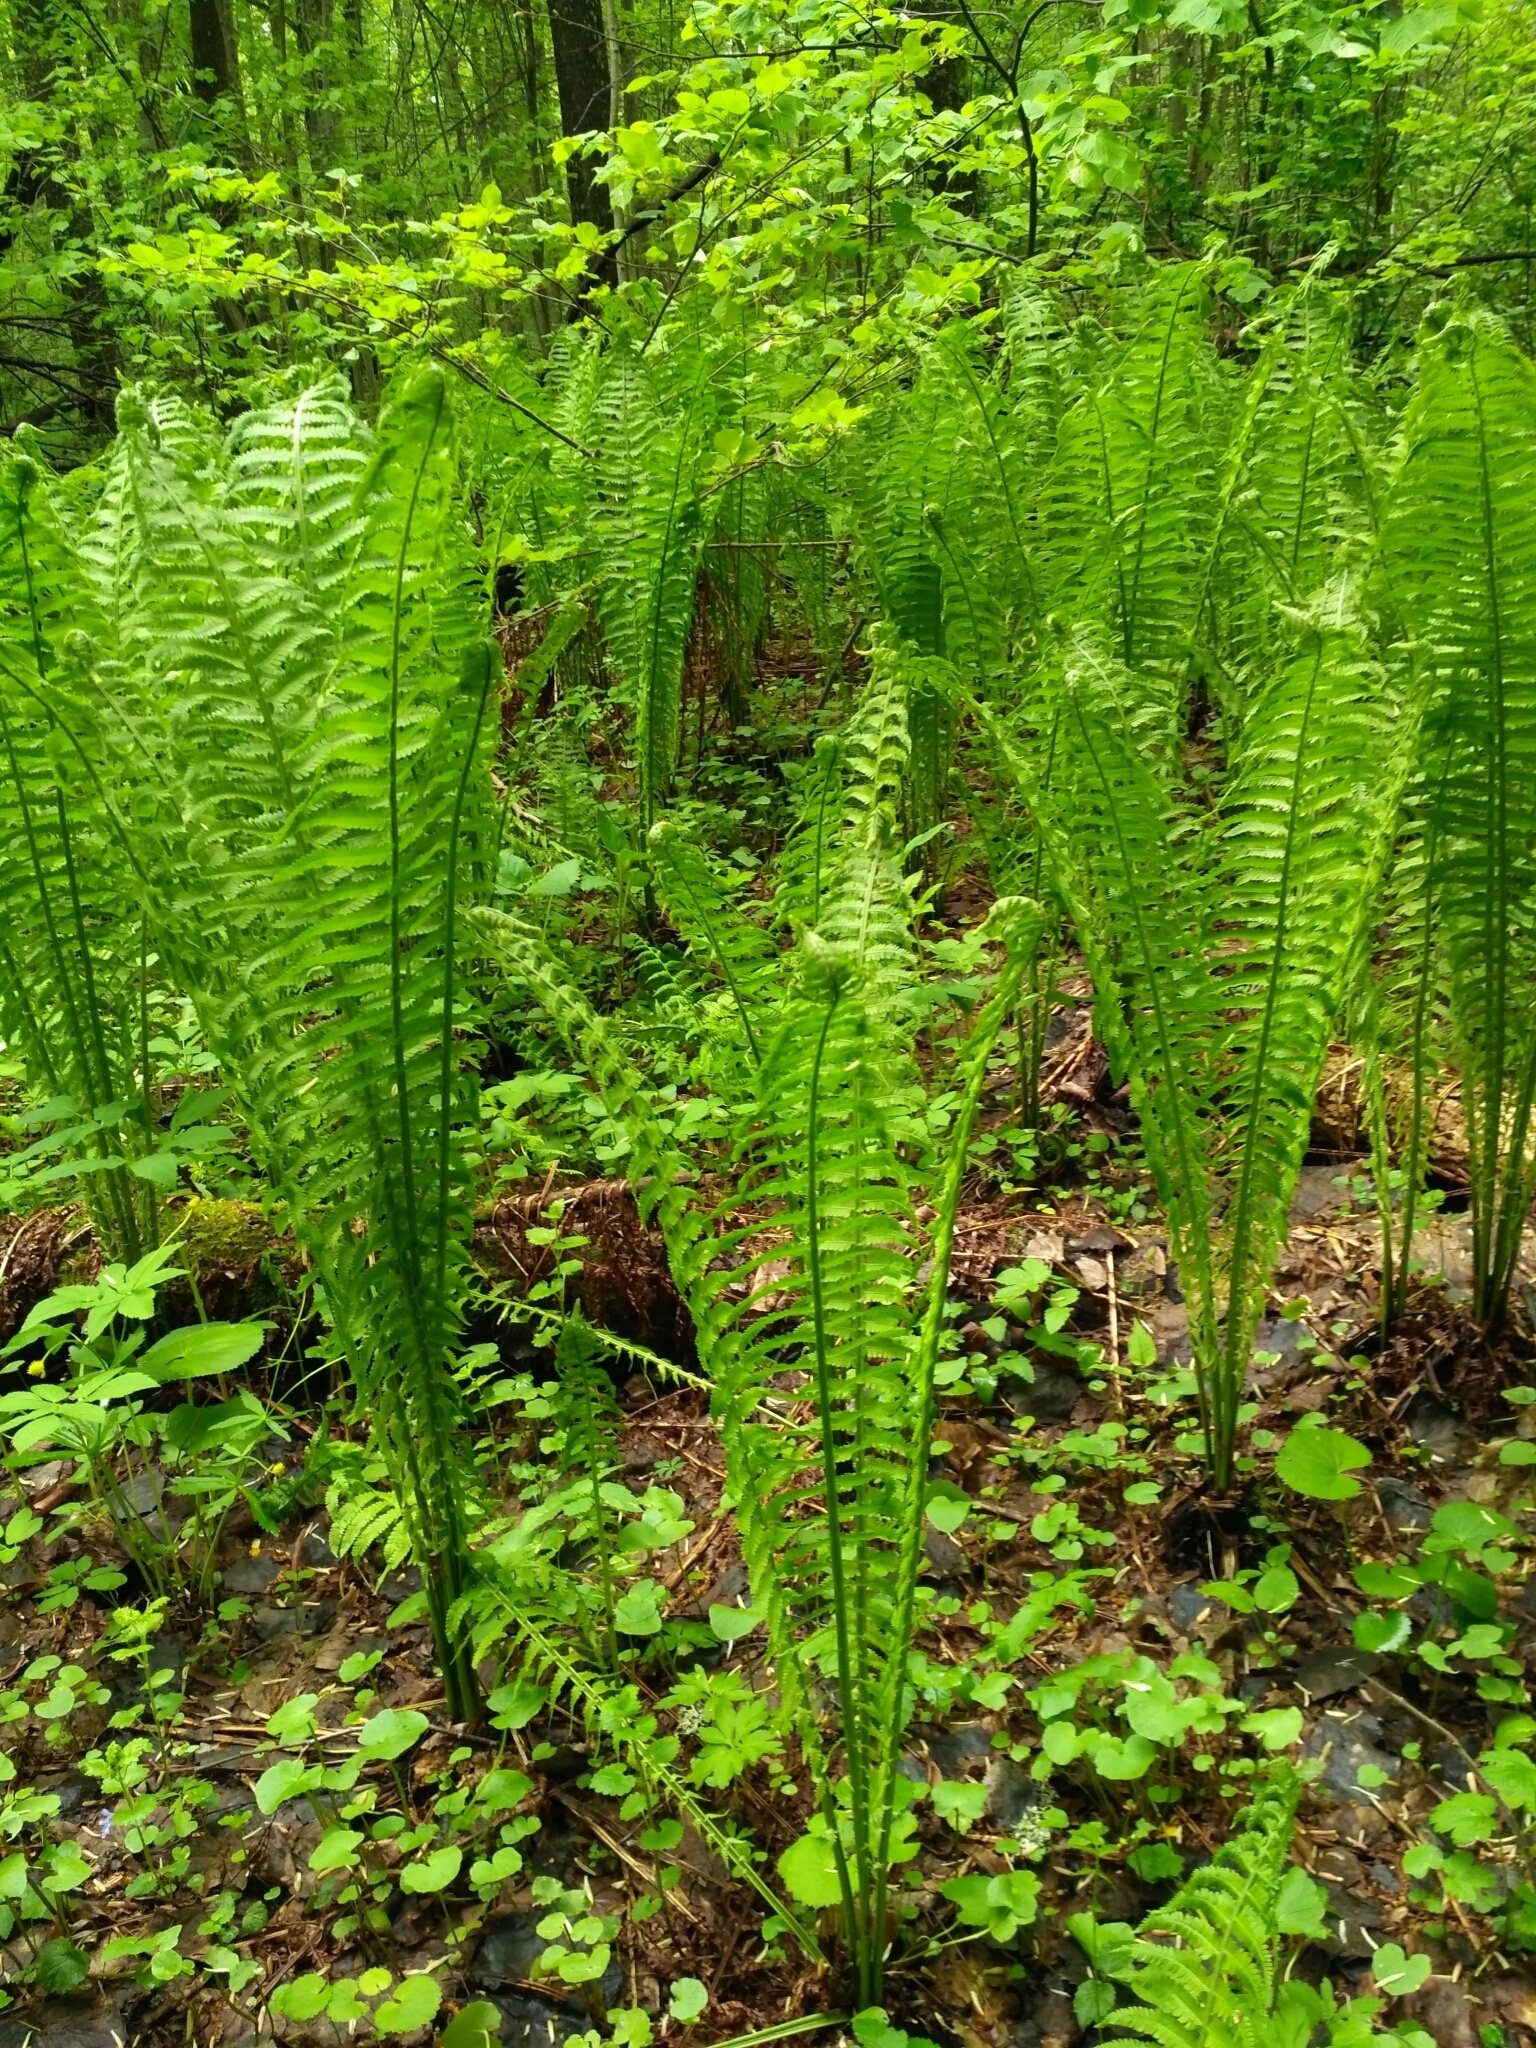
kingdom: Plantae
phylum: Tracheophyta
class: Polypodiopsida
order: Polypodiales
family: Onocleaceae
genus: Matteuccia
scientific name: Matteuccia struthiopteris
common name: Ostrich fern
